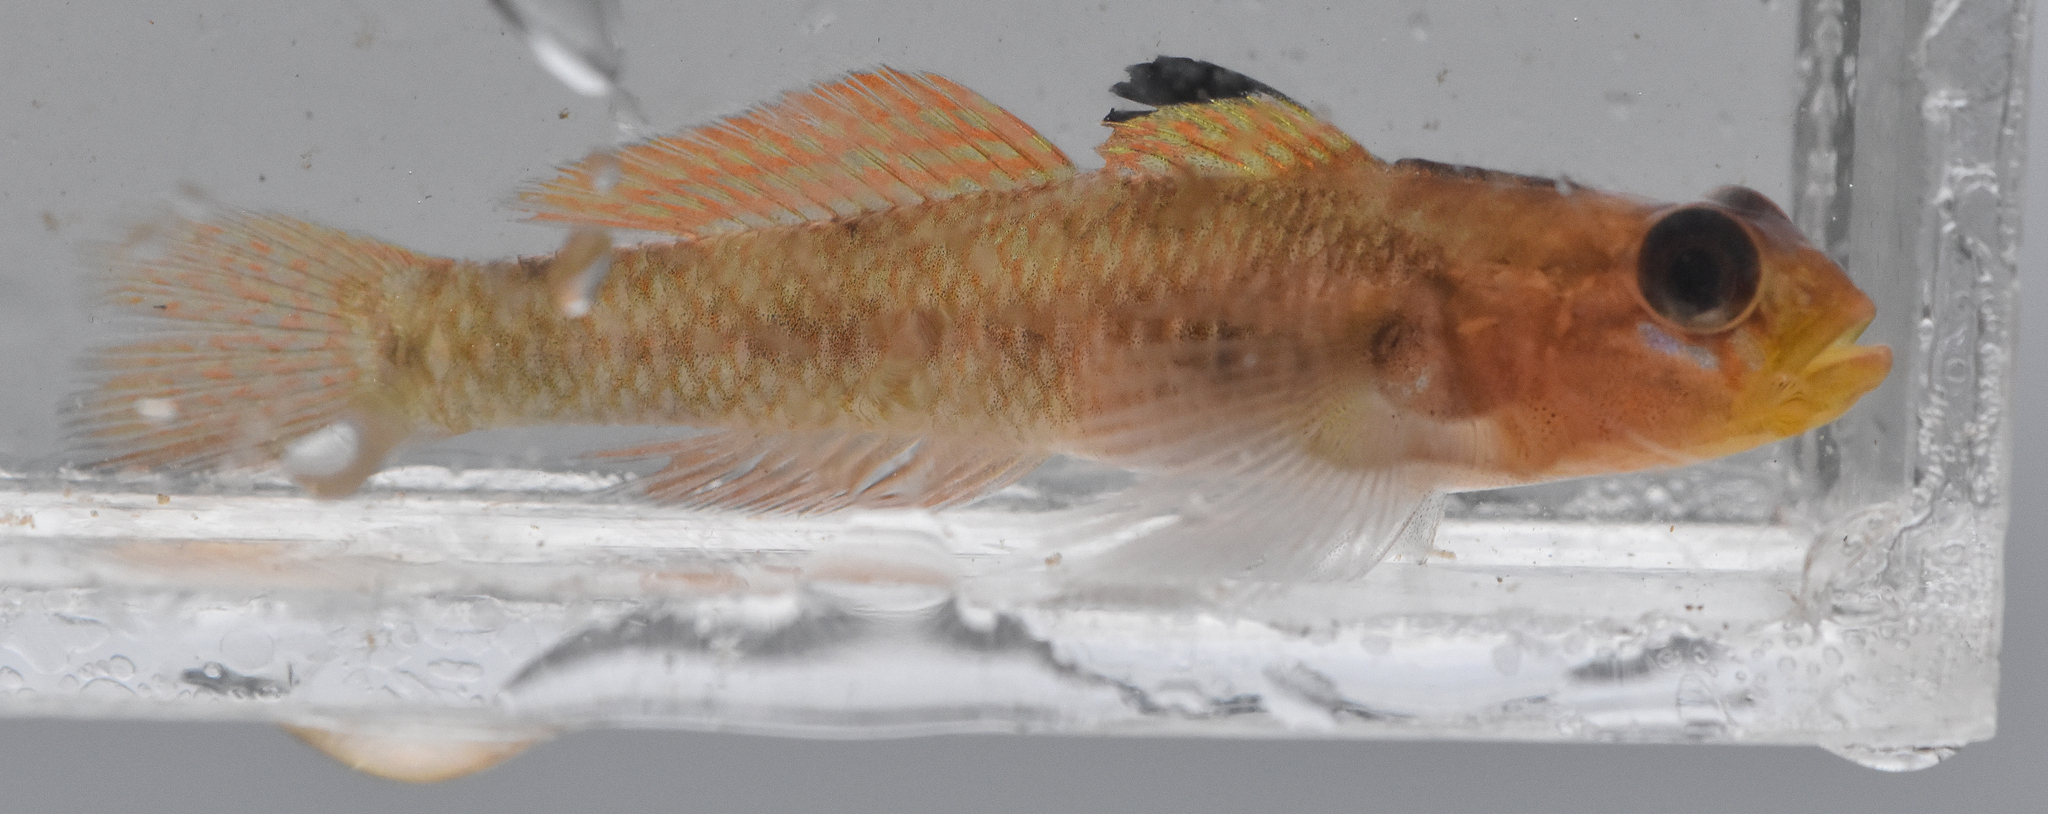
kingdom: Animalia
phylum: Chordata
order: Perciformes
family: Gobiidae
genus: Rhinogobiops
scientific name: Rhinogobiops nicholsii
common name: Blackeye goby
